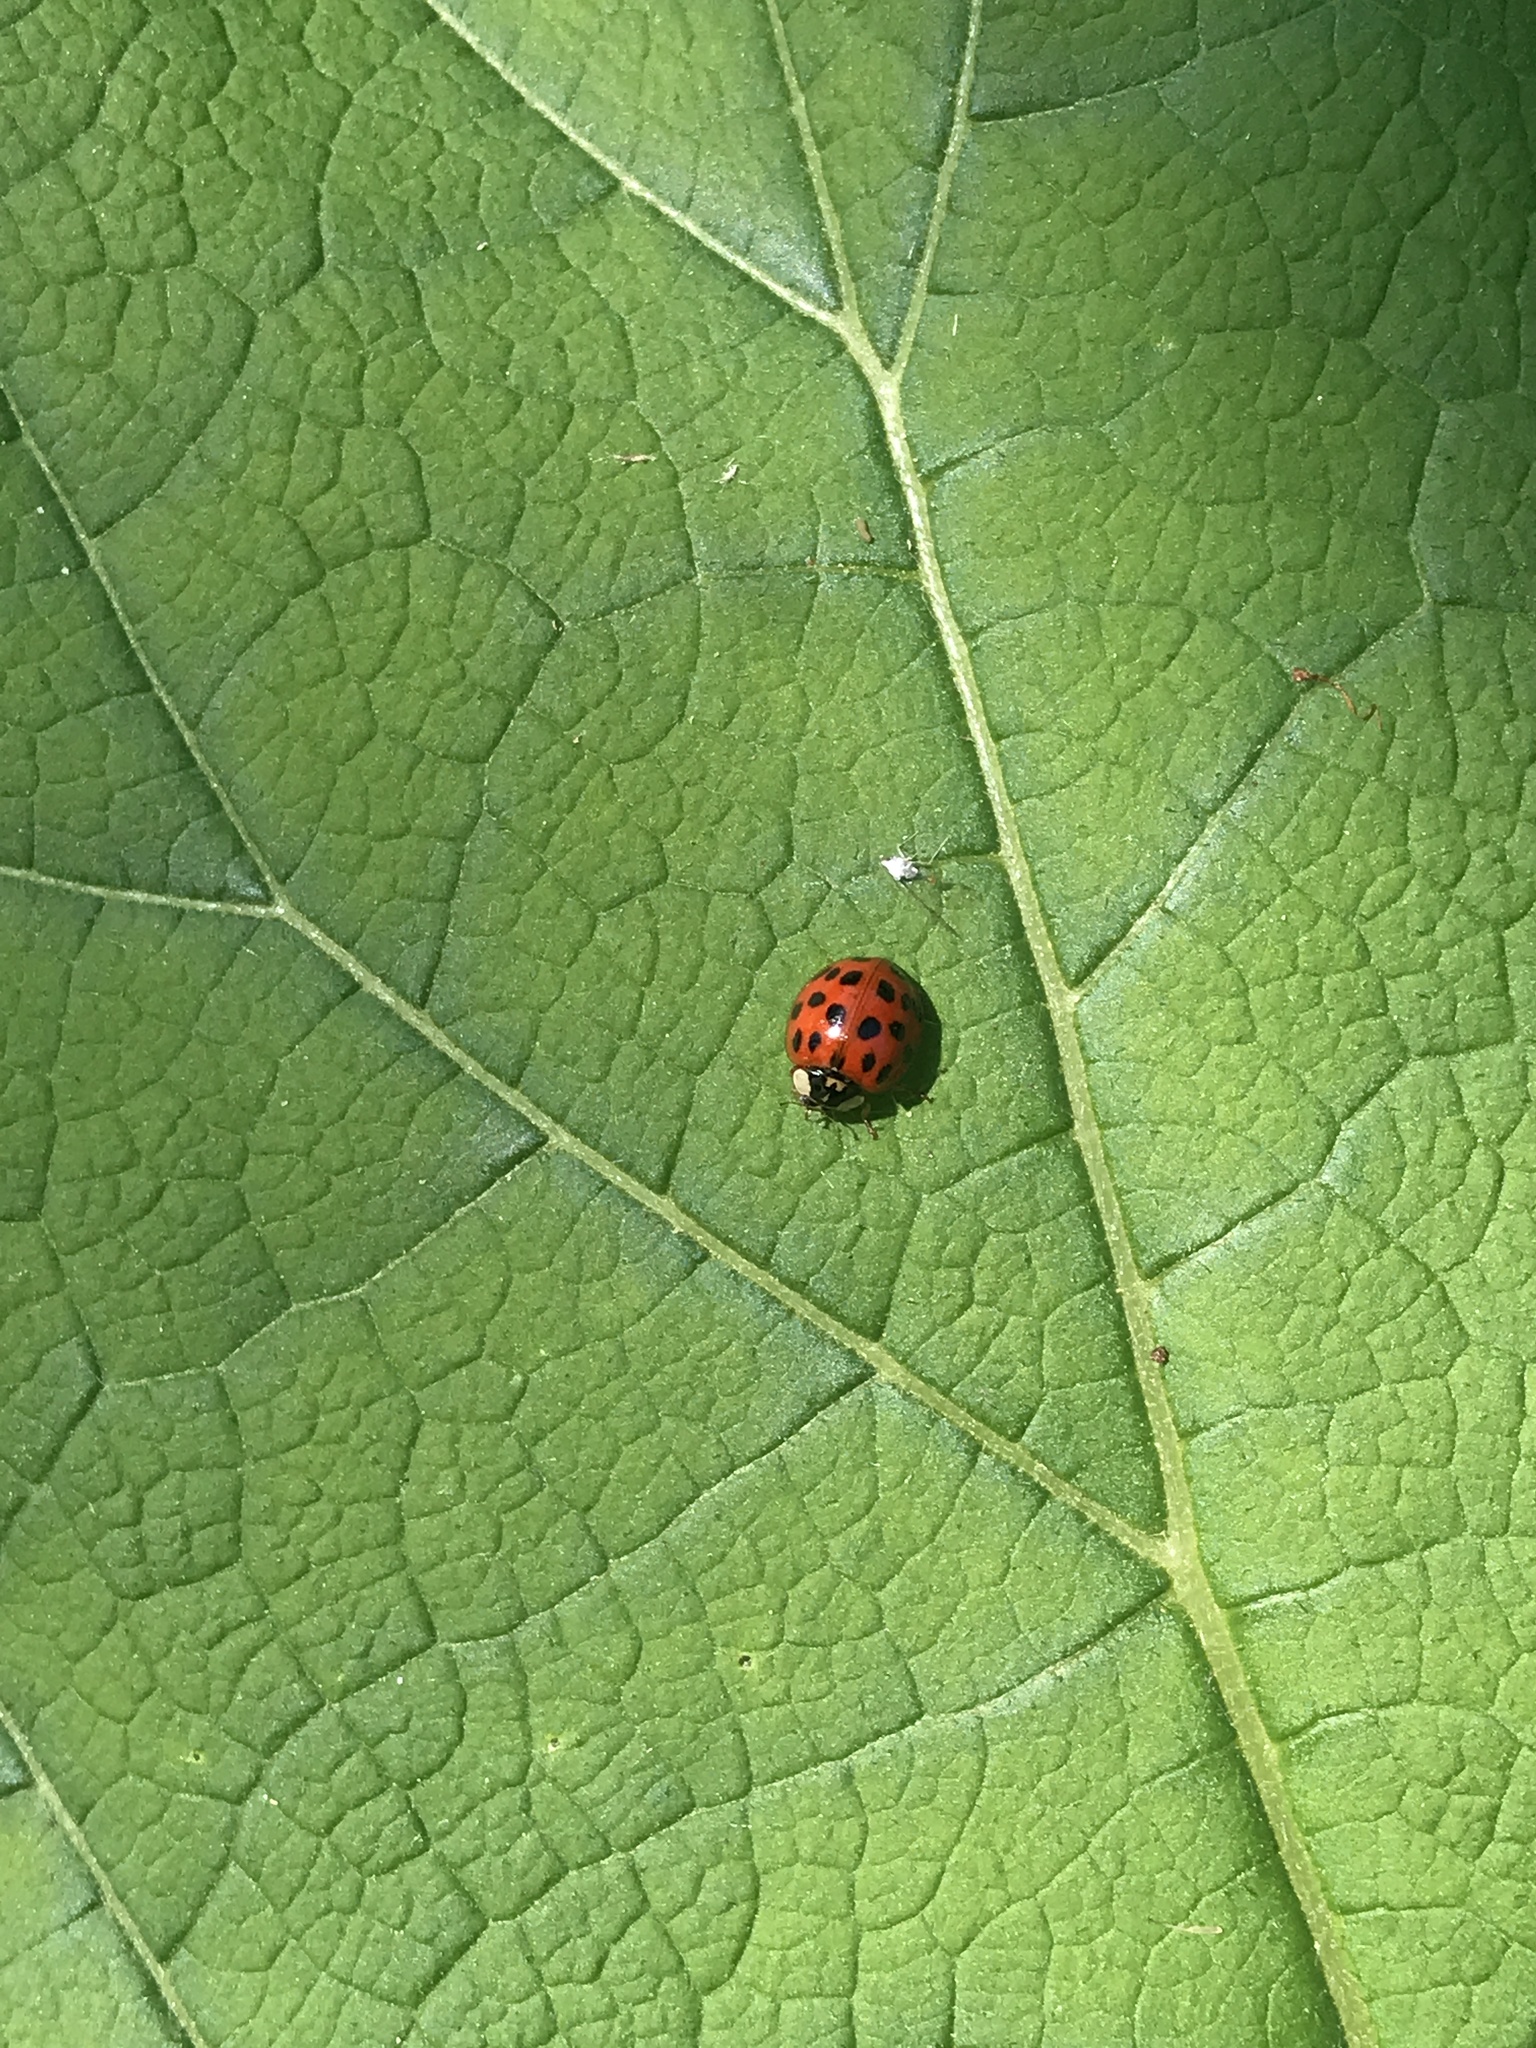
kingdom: Animalia
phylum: Arthropoda
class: Insecta
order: Coleoptera
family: Coccinellidae
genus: Harmonia
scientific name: Harmonia axyridis
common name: Harlequin ladybird
